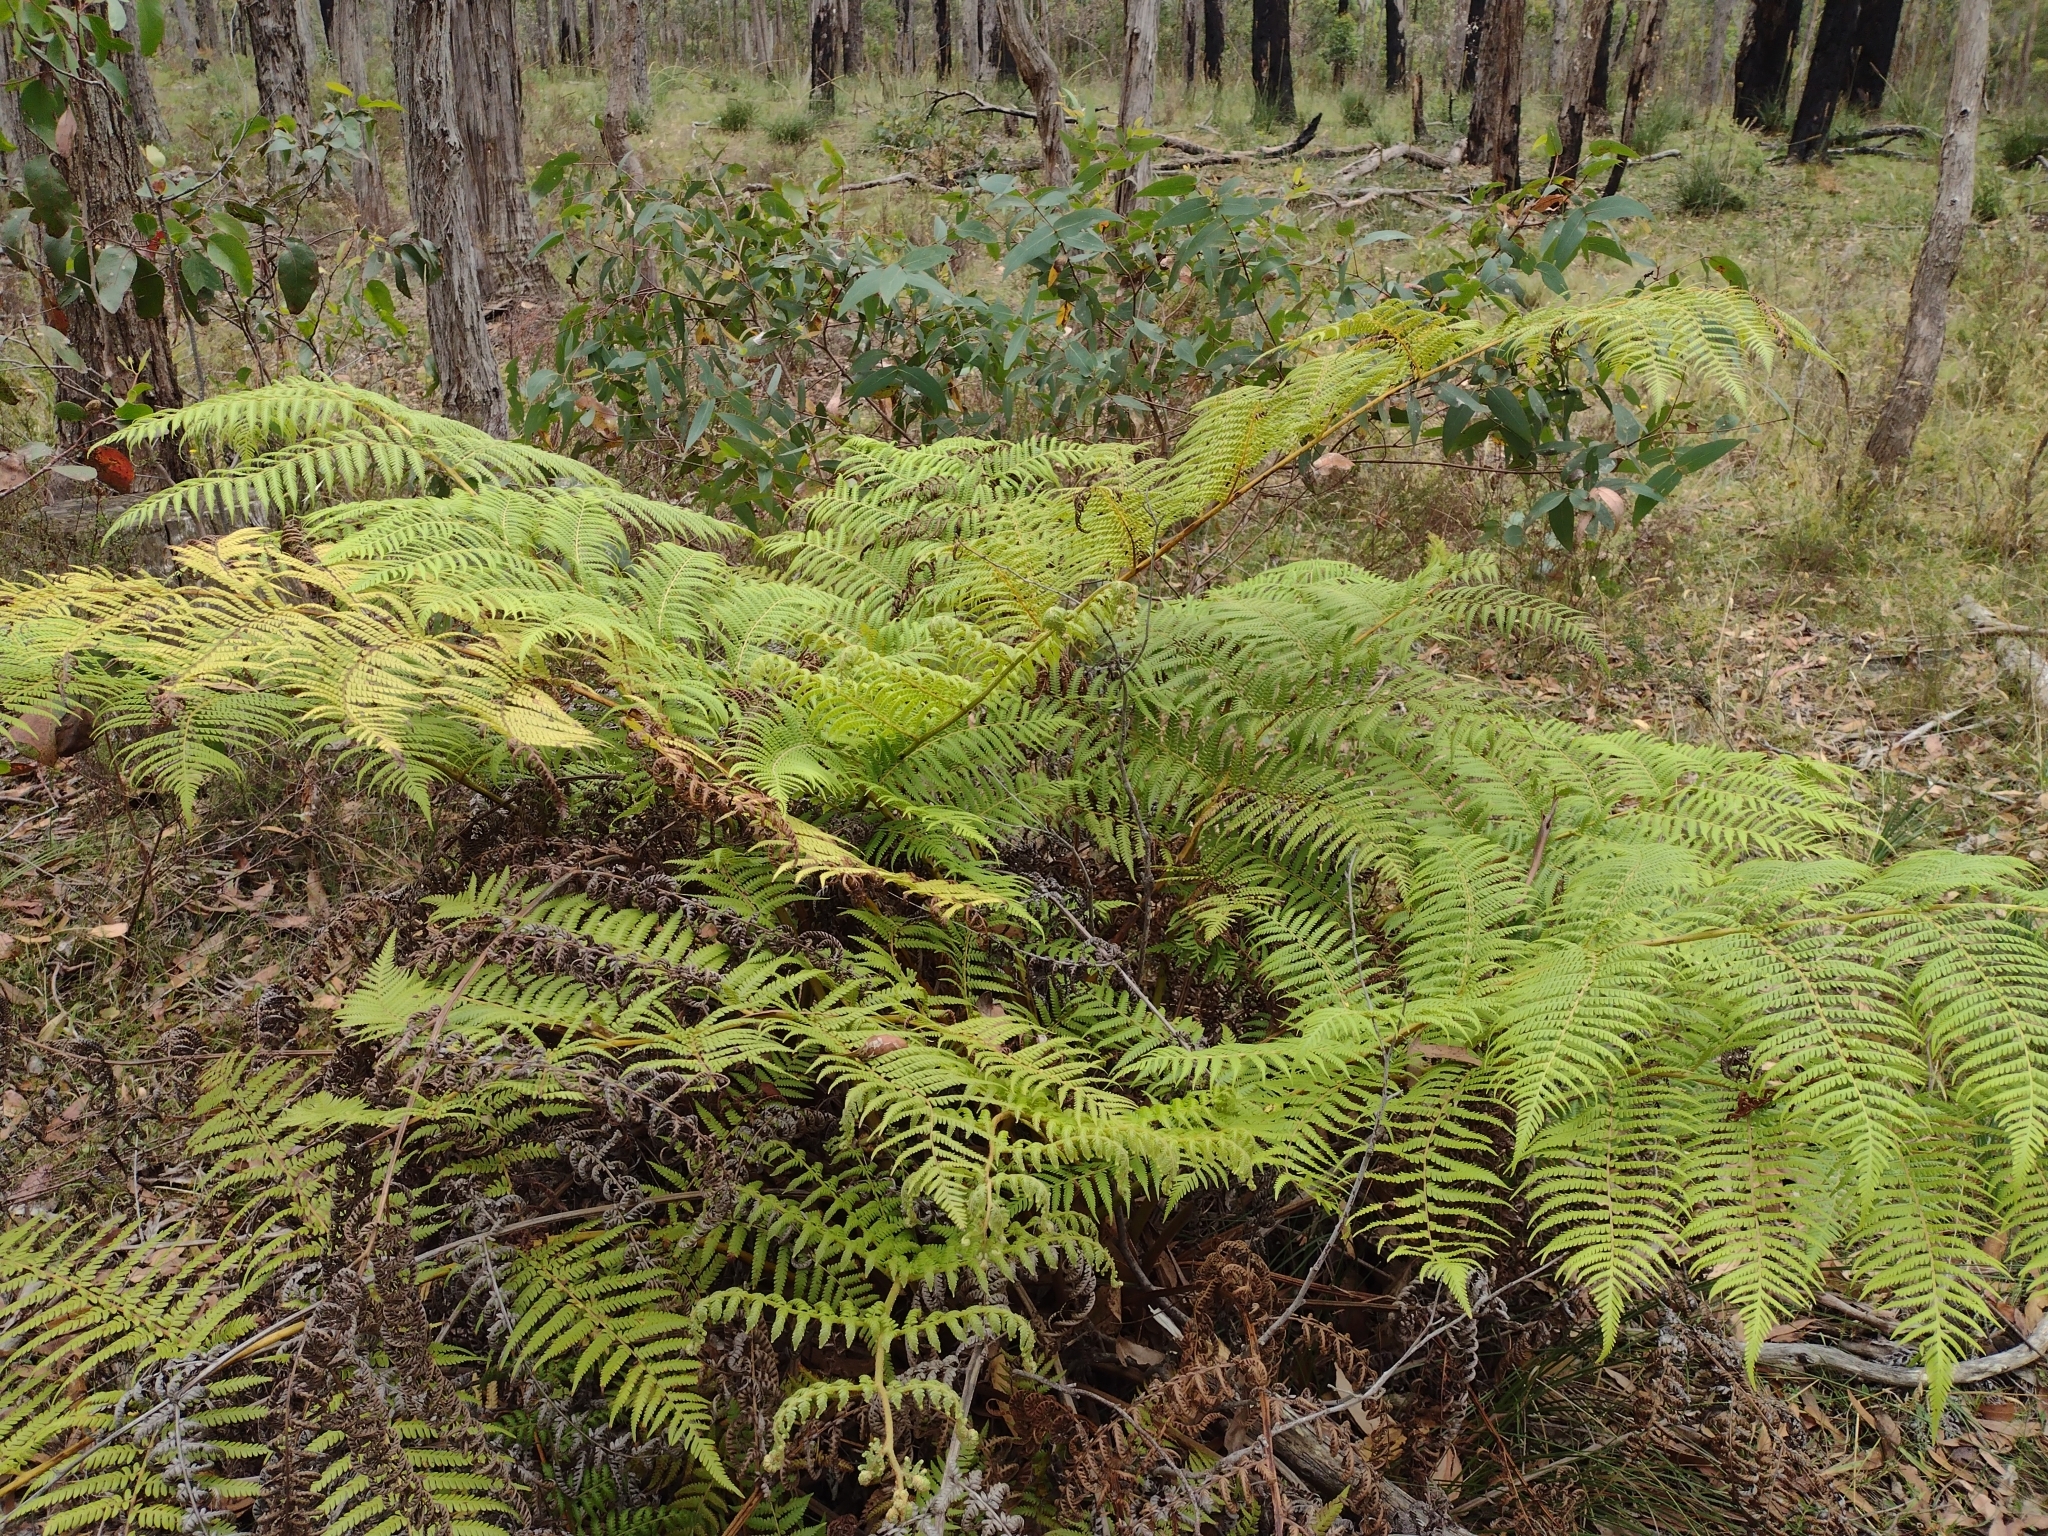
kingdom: Plantae
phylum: Tracheophyta
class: Polypodiopsida
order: Cyatheales
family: Cyatheaceae
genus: Alsophila
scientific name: Alsophila australis
